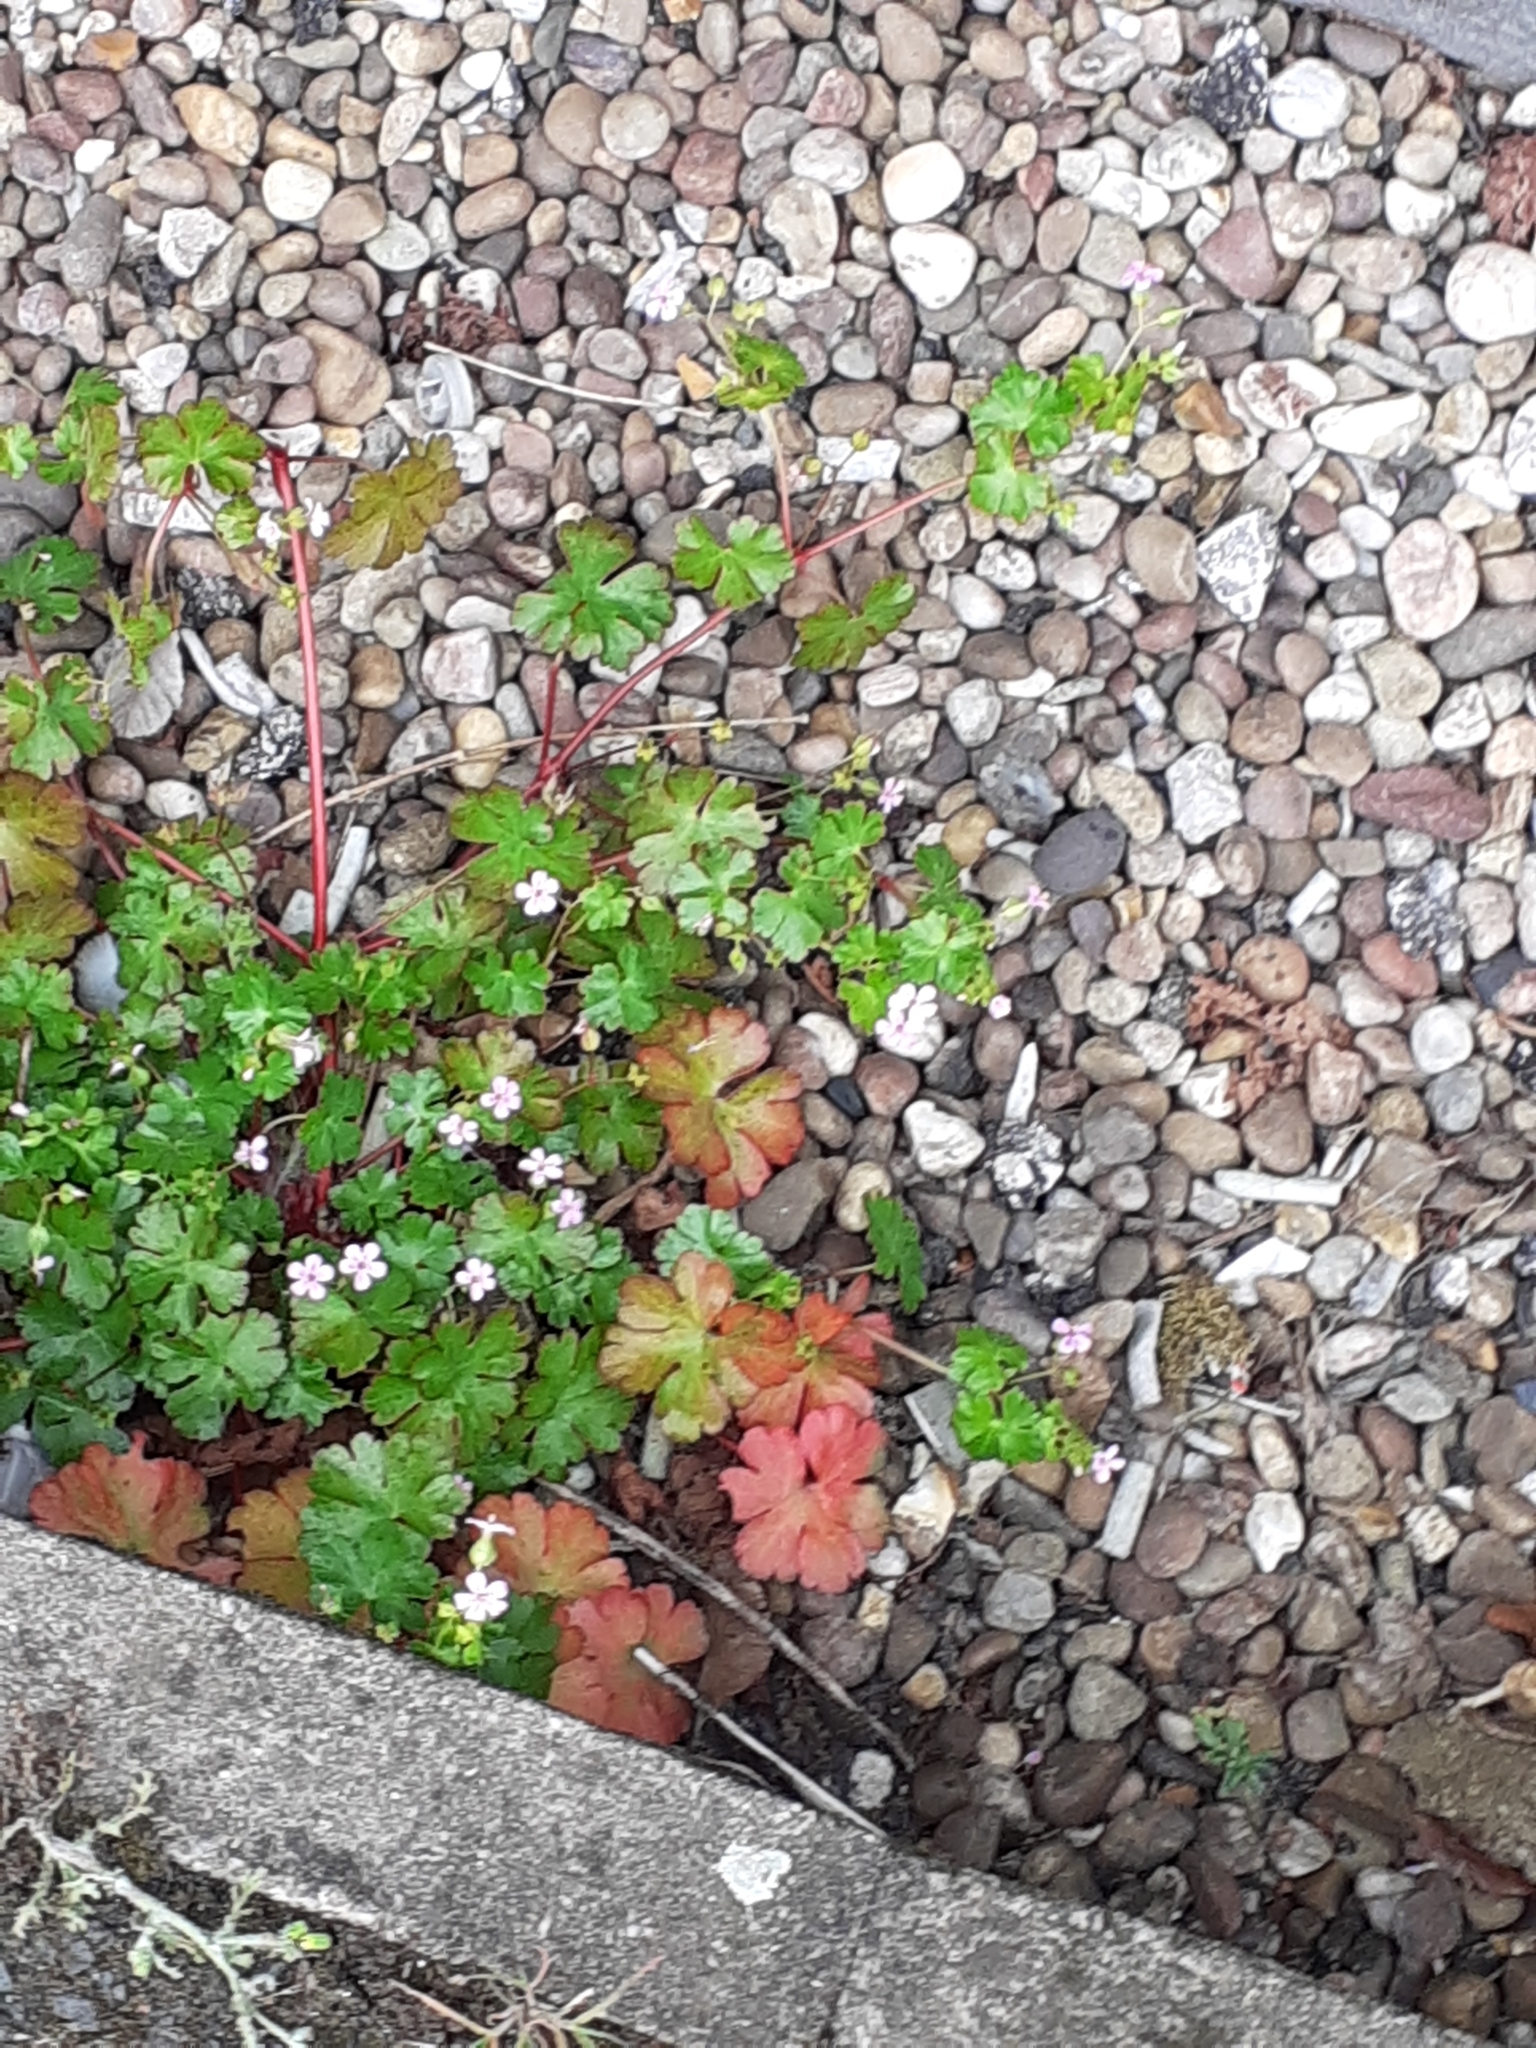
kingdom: Plantae
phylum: Tracheophyta
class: Magnoliopsida
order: Geraniales
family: Geraniaceae
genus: Geranium
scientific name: Geranium lucidum
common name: Shining crane's-bill
